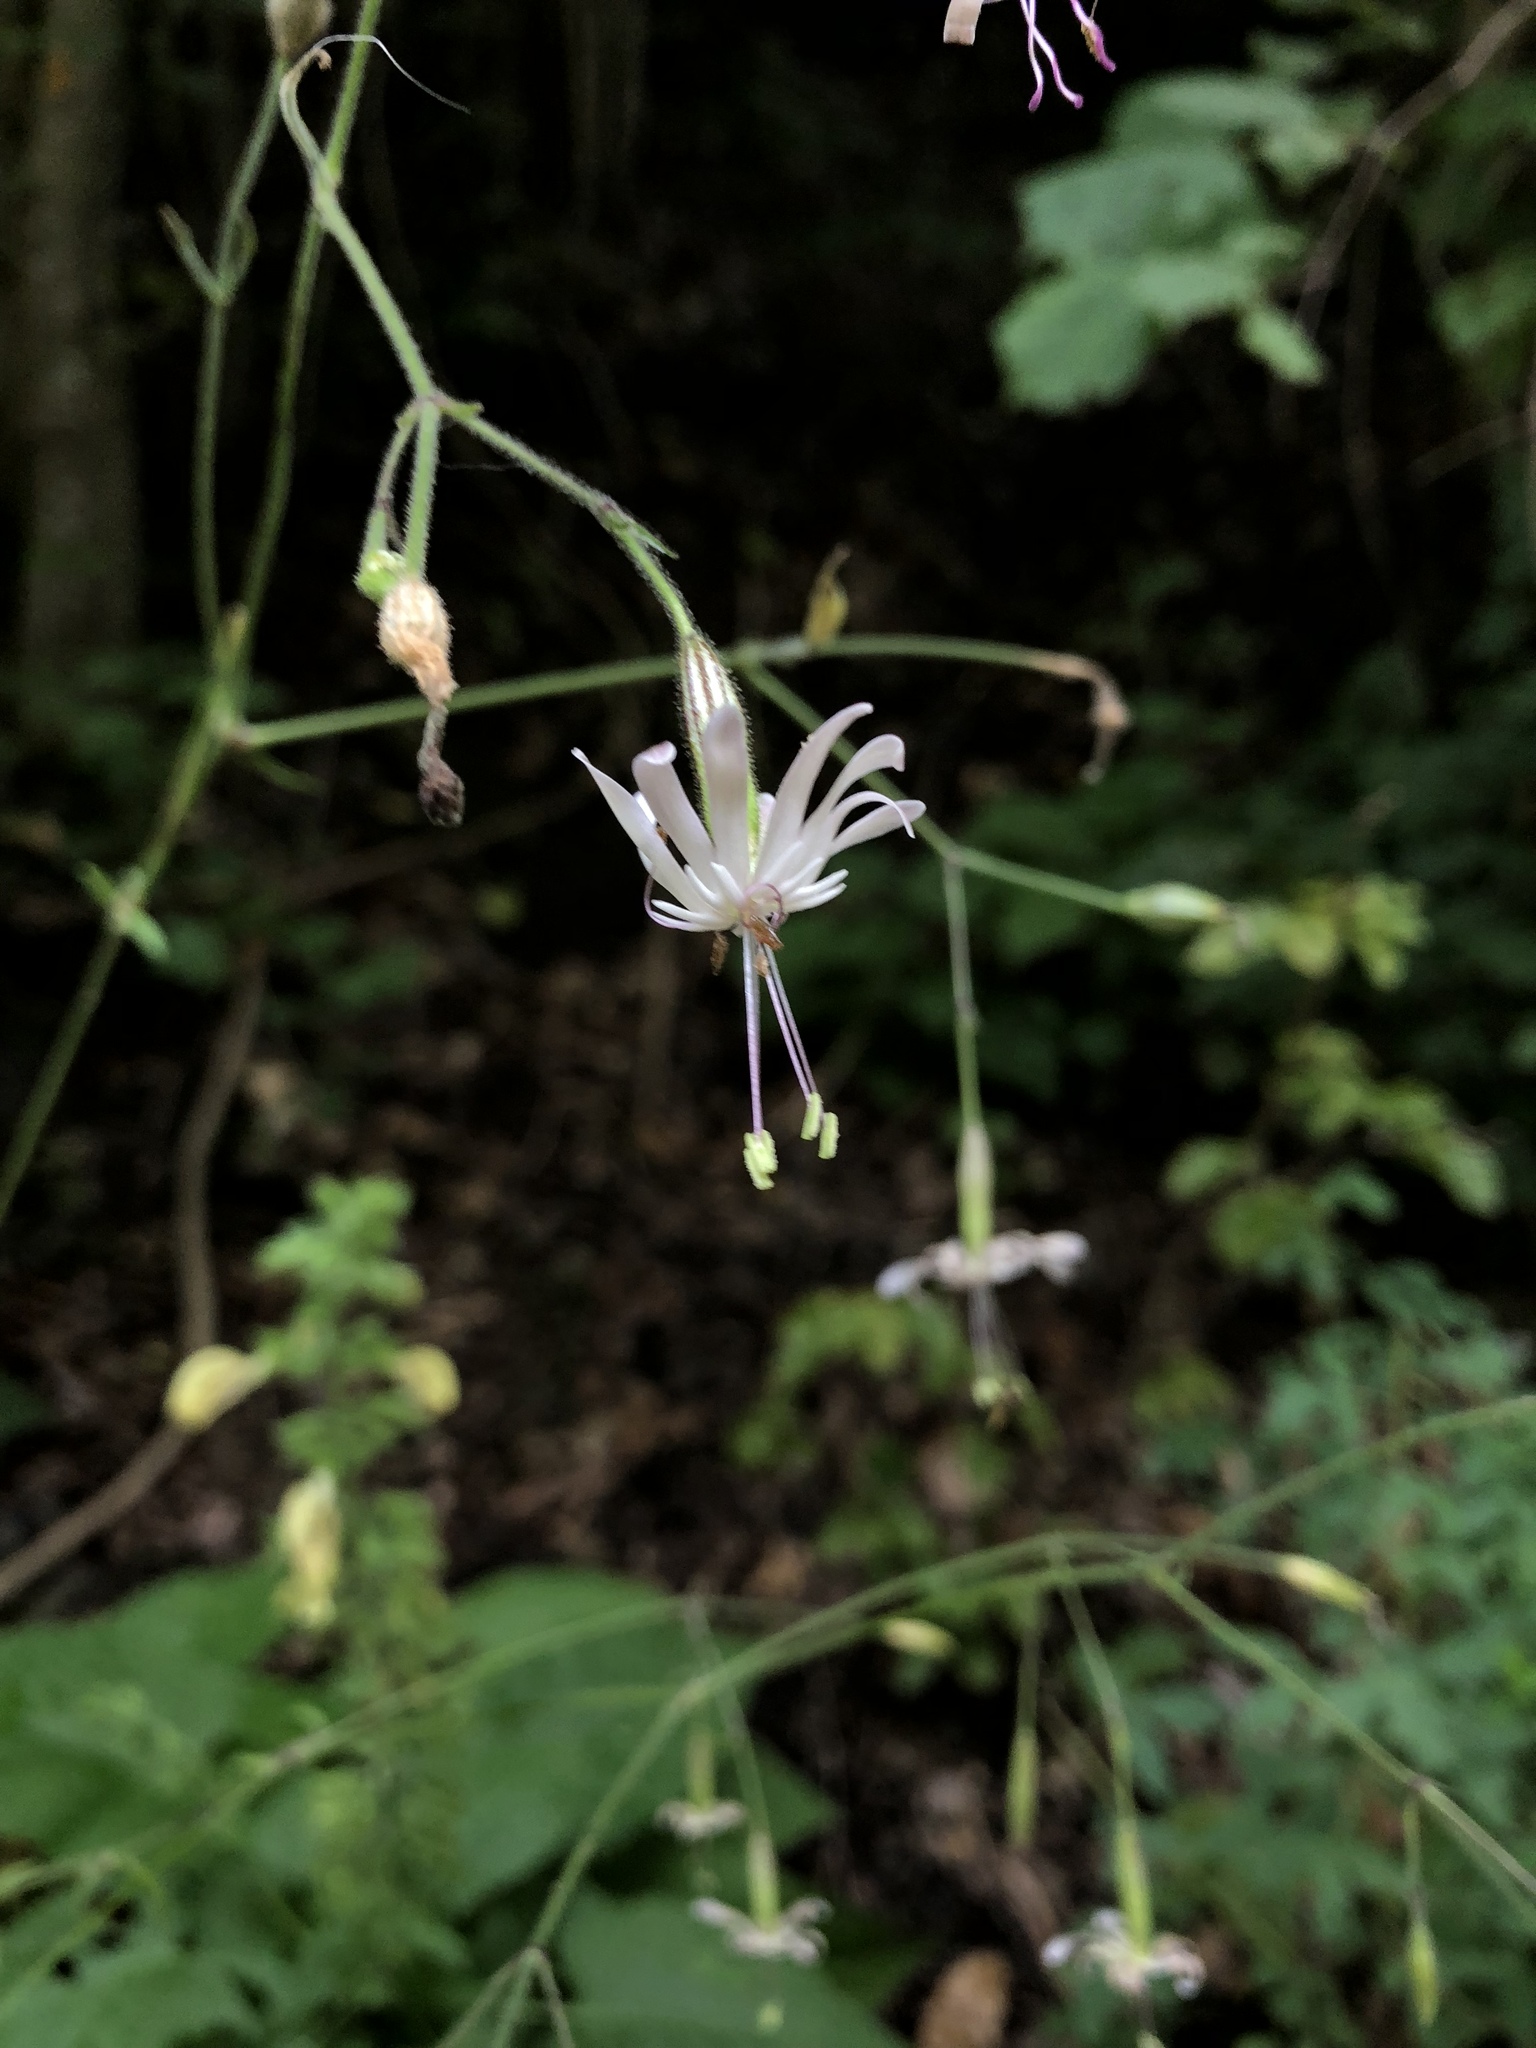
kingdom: Plantae
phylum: Tracheophyta
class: Magnoliopsida
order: Caryophyllales
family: Caryophyllaceae
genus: Silene
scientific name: Silene nutans
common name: Nottingham catchfly
